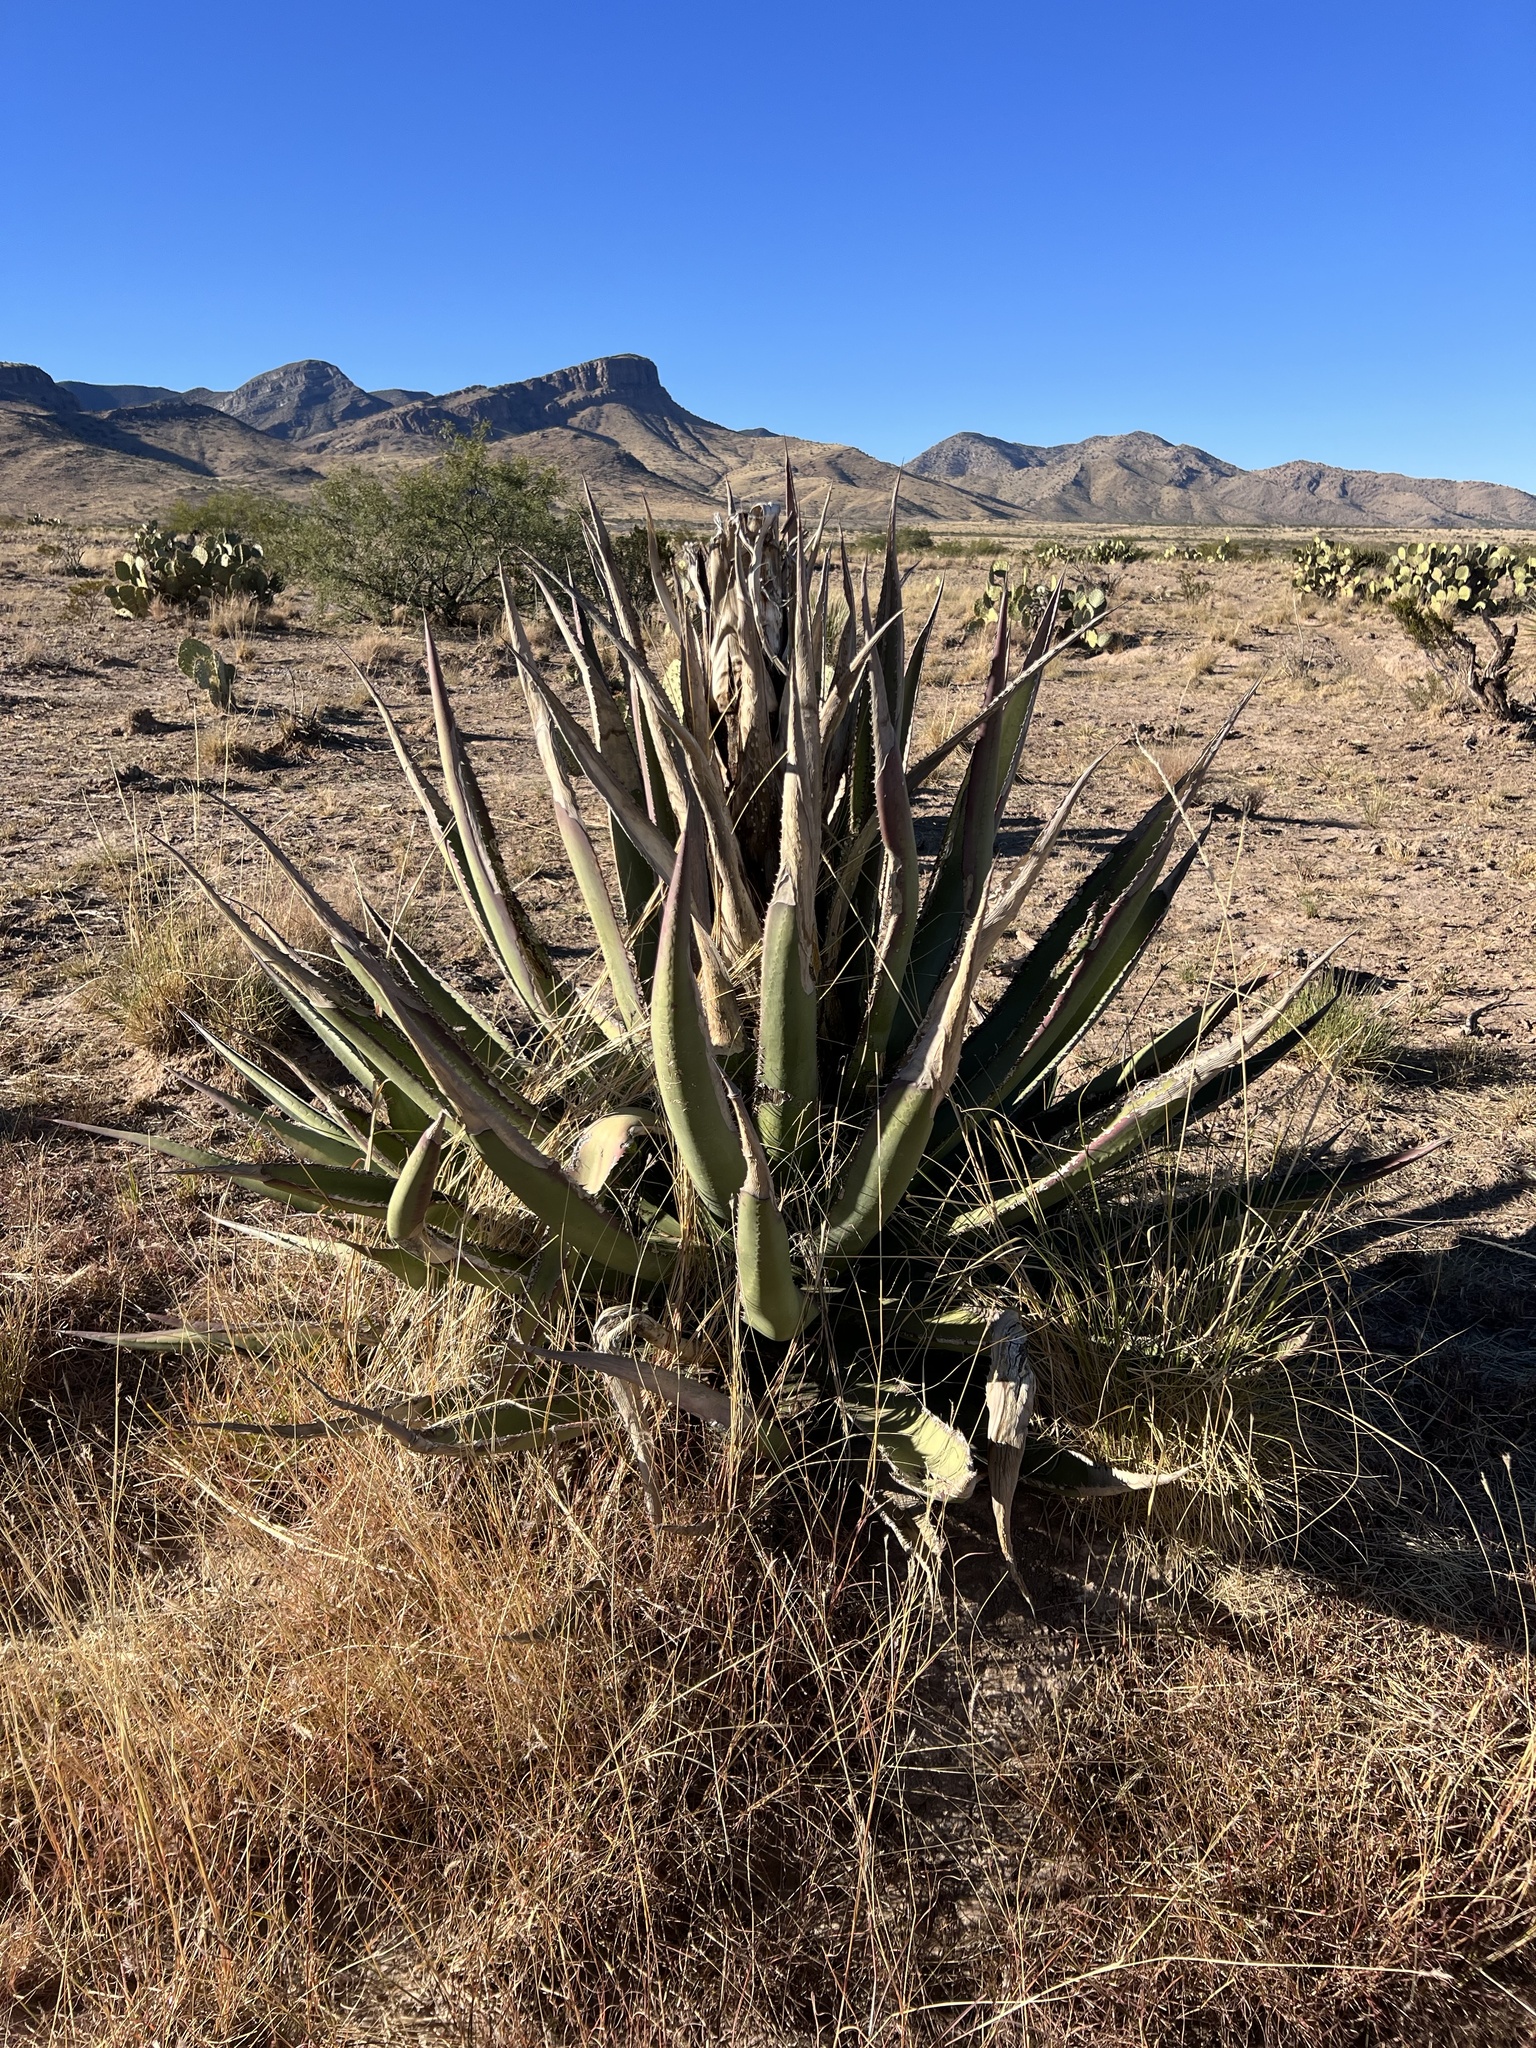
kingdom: Plantae
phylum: Tracheophyta
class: Liliopsida
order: Asparagales
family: Asparagaceae
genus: Agave
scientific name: Agave palmeri
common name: Palmer agave
